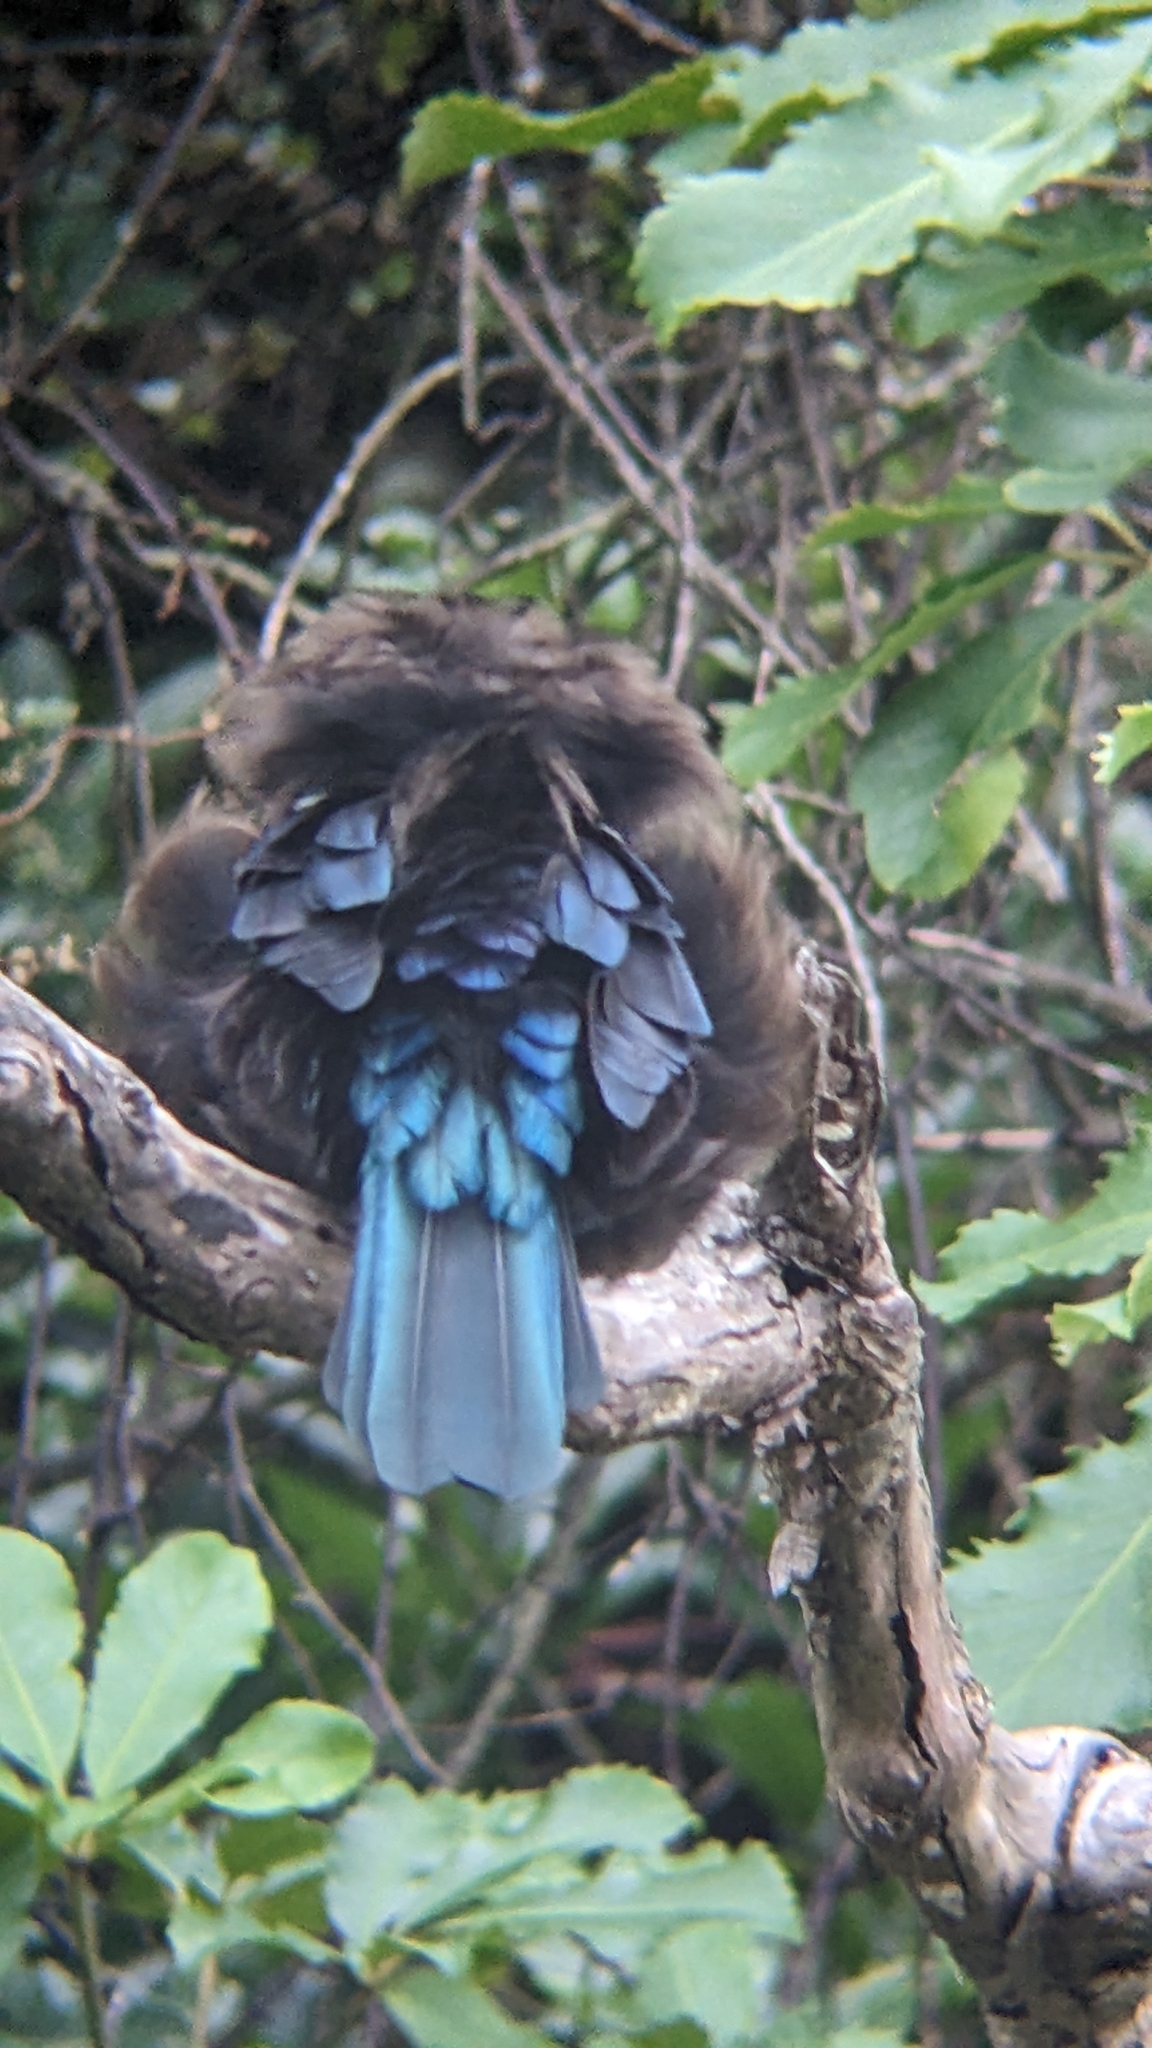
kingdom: Animalia
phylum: Chordata
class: Aves
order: Passeriformes
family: Meliphagidae
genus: Prosthemadera
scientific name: Prosthemadera novaeseelandiae
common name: Tui
